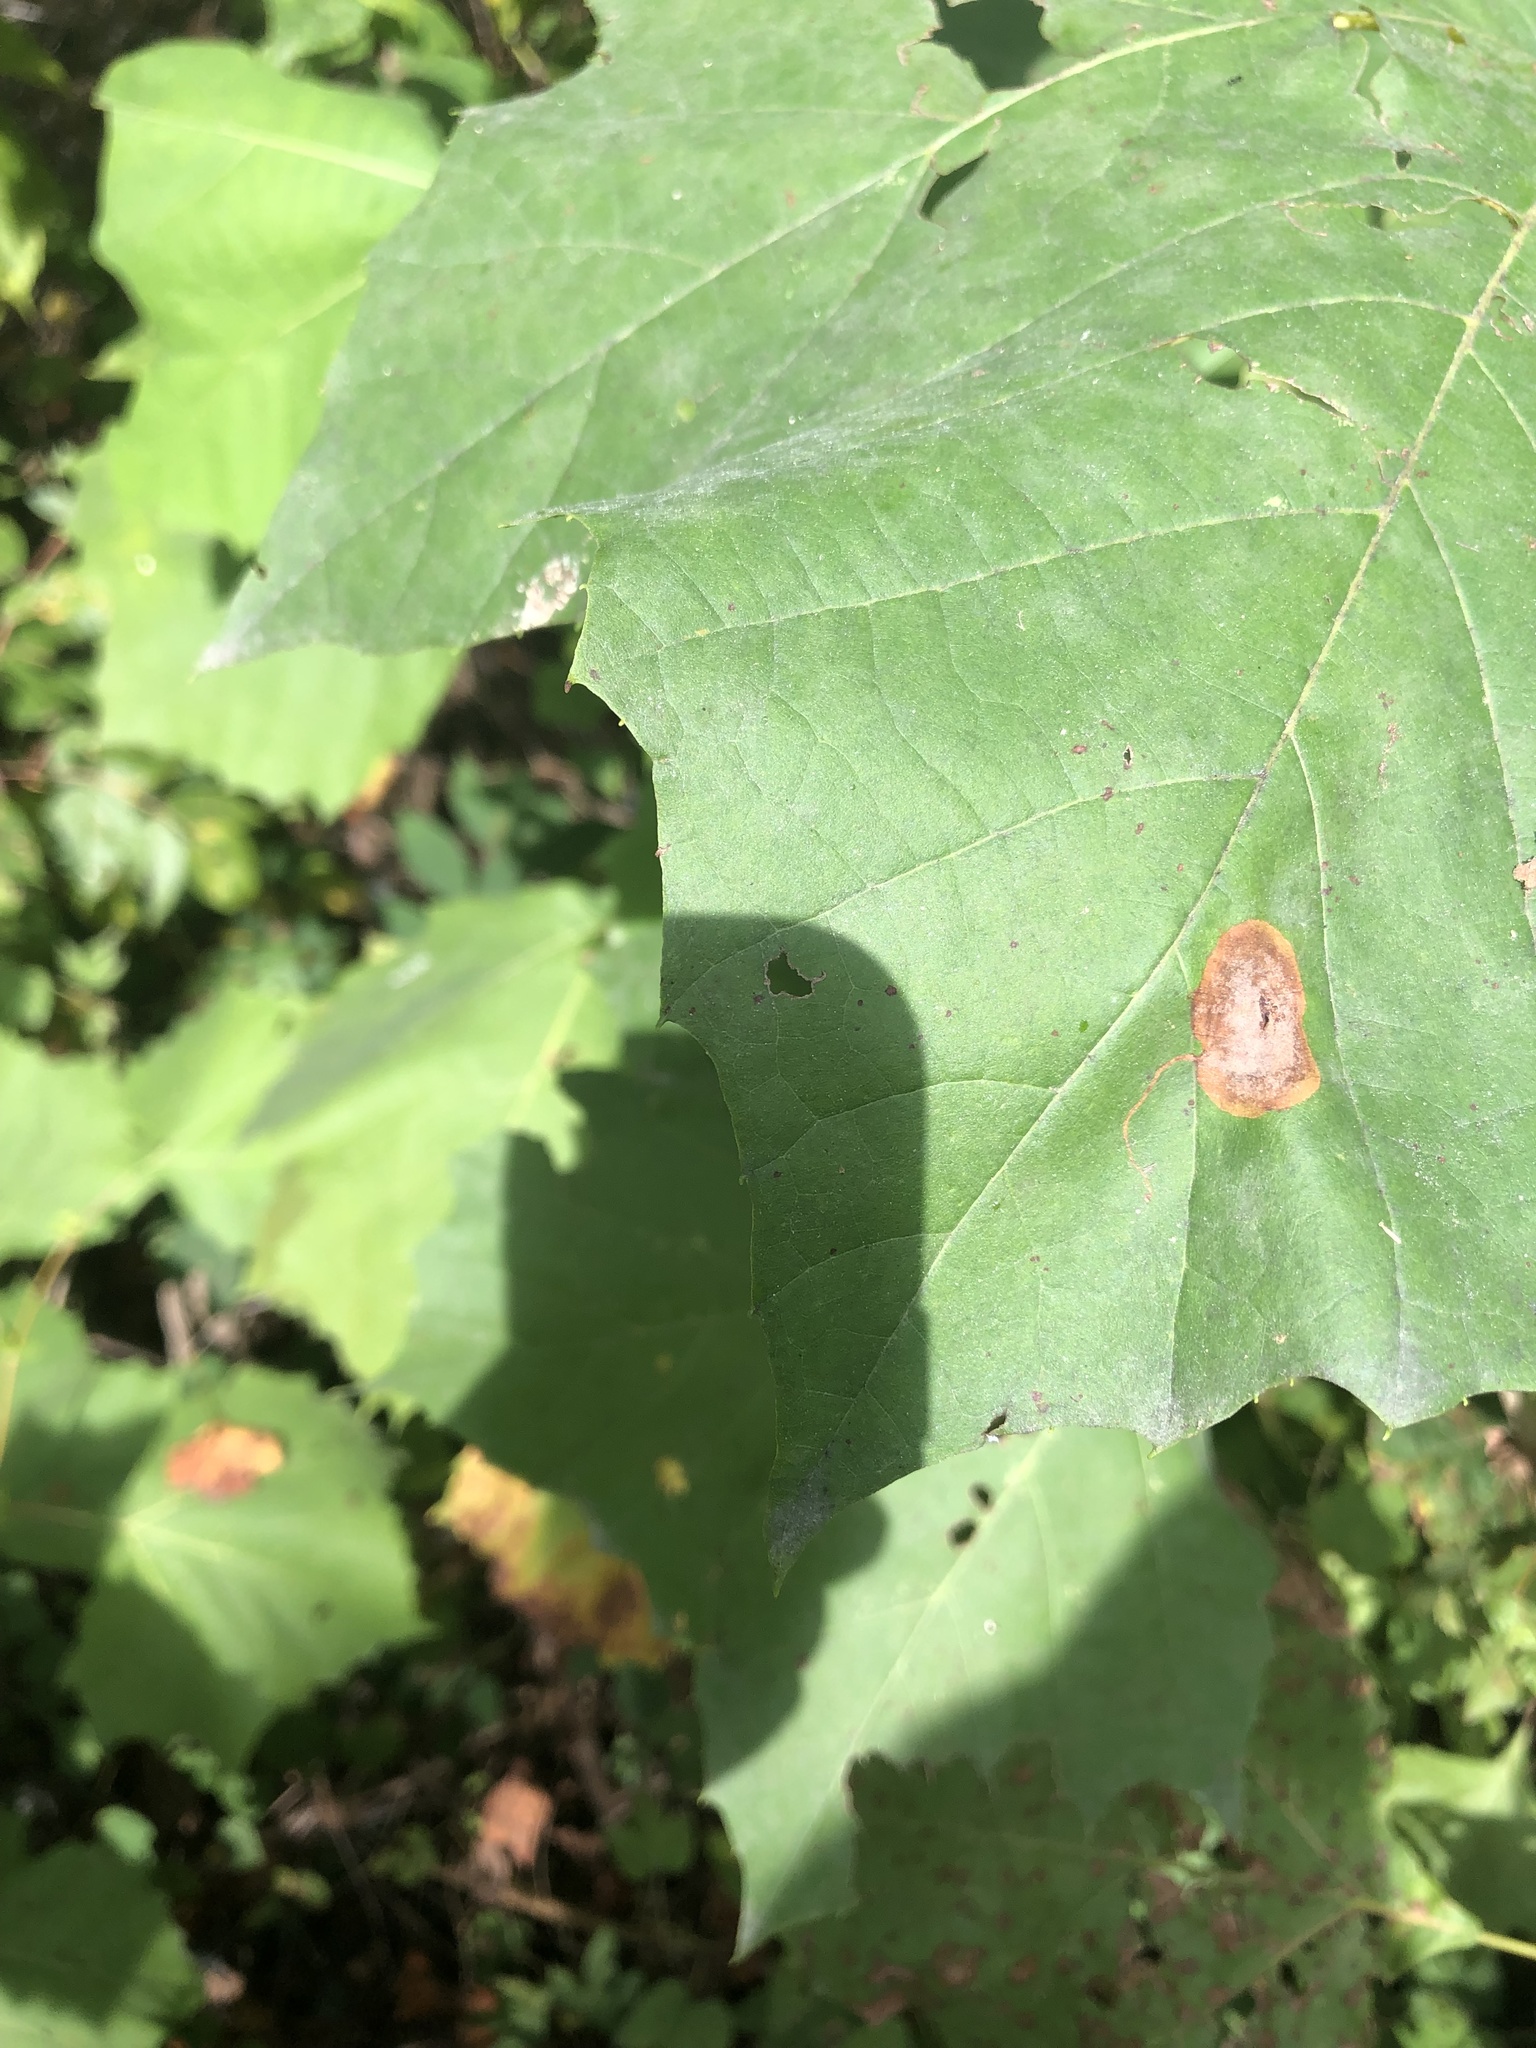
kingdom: Animalia
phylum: Arthropoda
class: Insecta
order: Lepidoptera
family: Nepticulidae
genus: Ectoedemia
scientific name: Ectoedemia platanella
